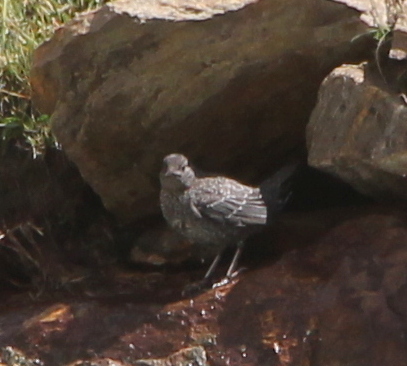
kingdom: Animalia
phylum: Chordata
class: Aves
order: Passeriformes
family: Cinclidae
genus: Cinclus
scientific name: Cinclus pallasii
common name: Brown dipper
